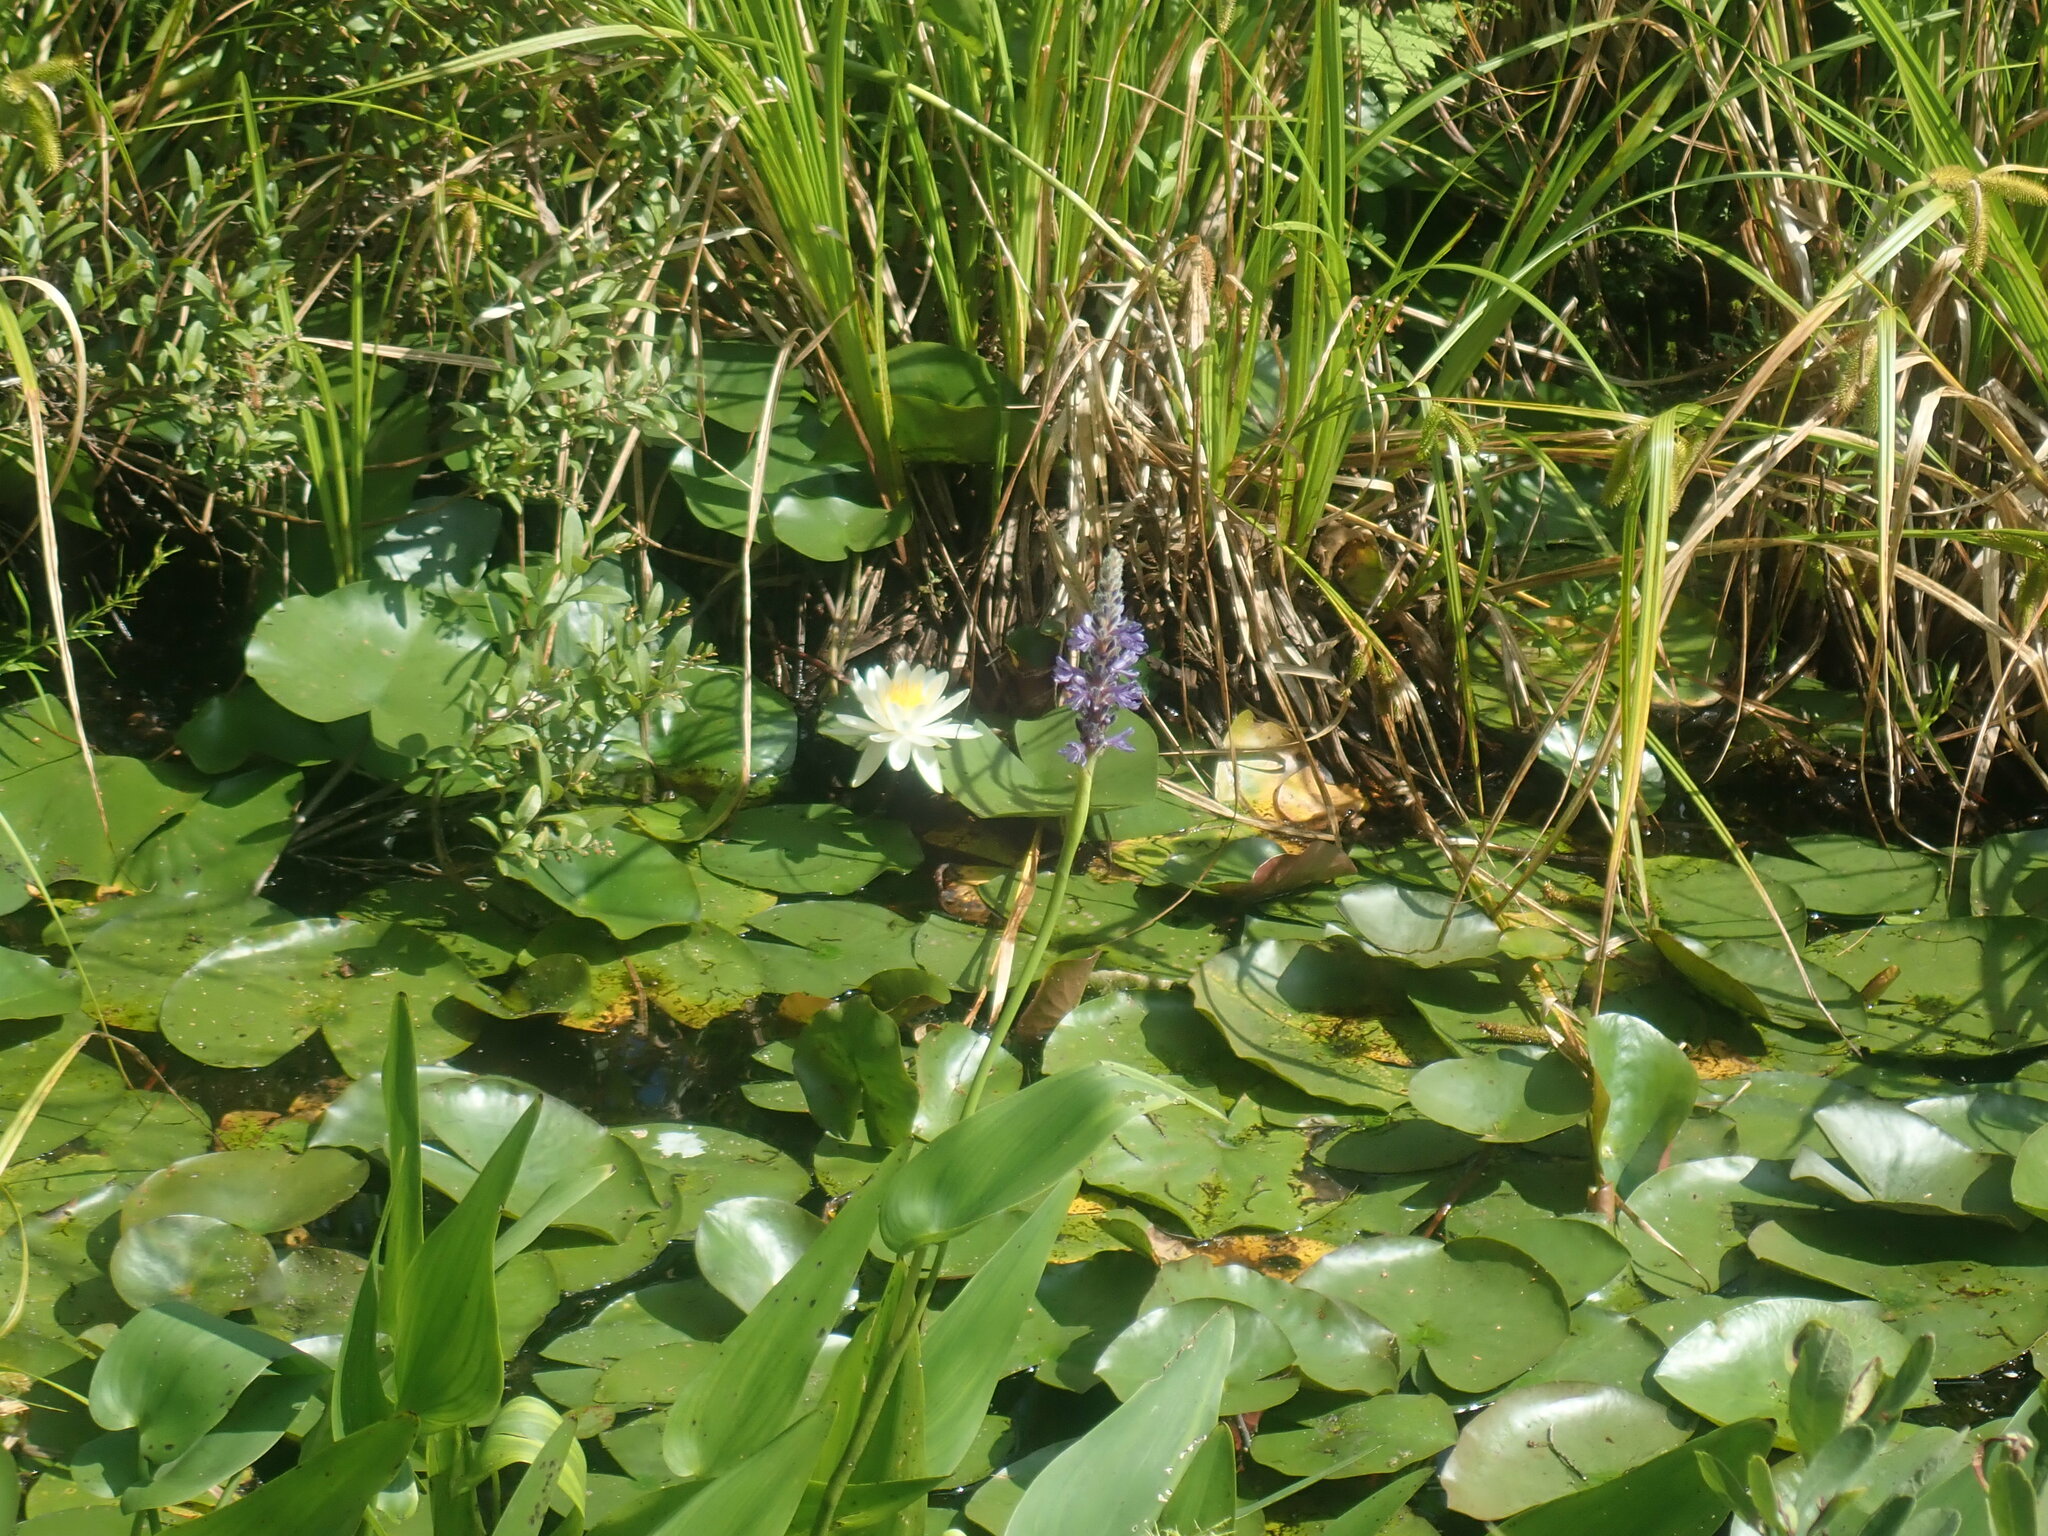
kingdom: Plantae
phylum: Tracheophyta
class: Liliopsida
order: Commelinales
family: Pontederiaceae
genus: Pontederia
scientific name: Pontederia cordata
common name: Pickerelweed
